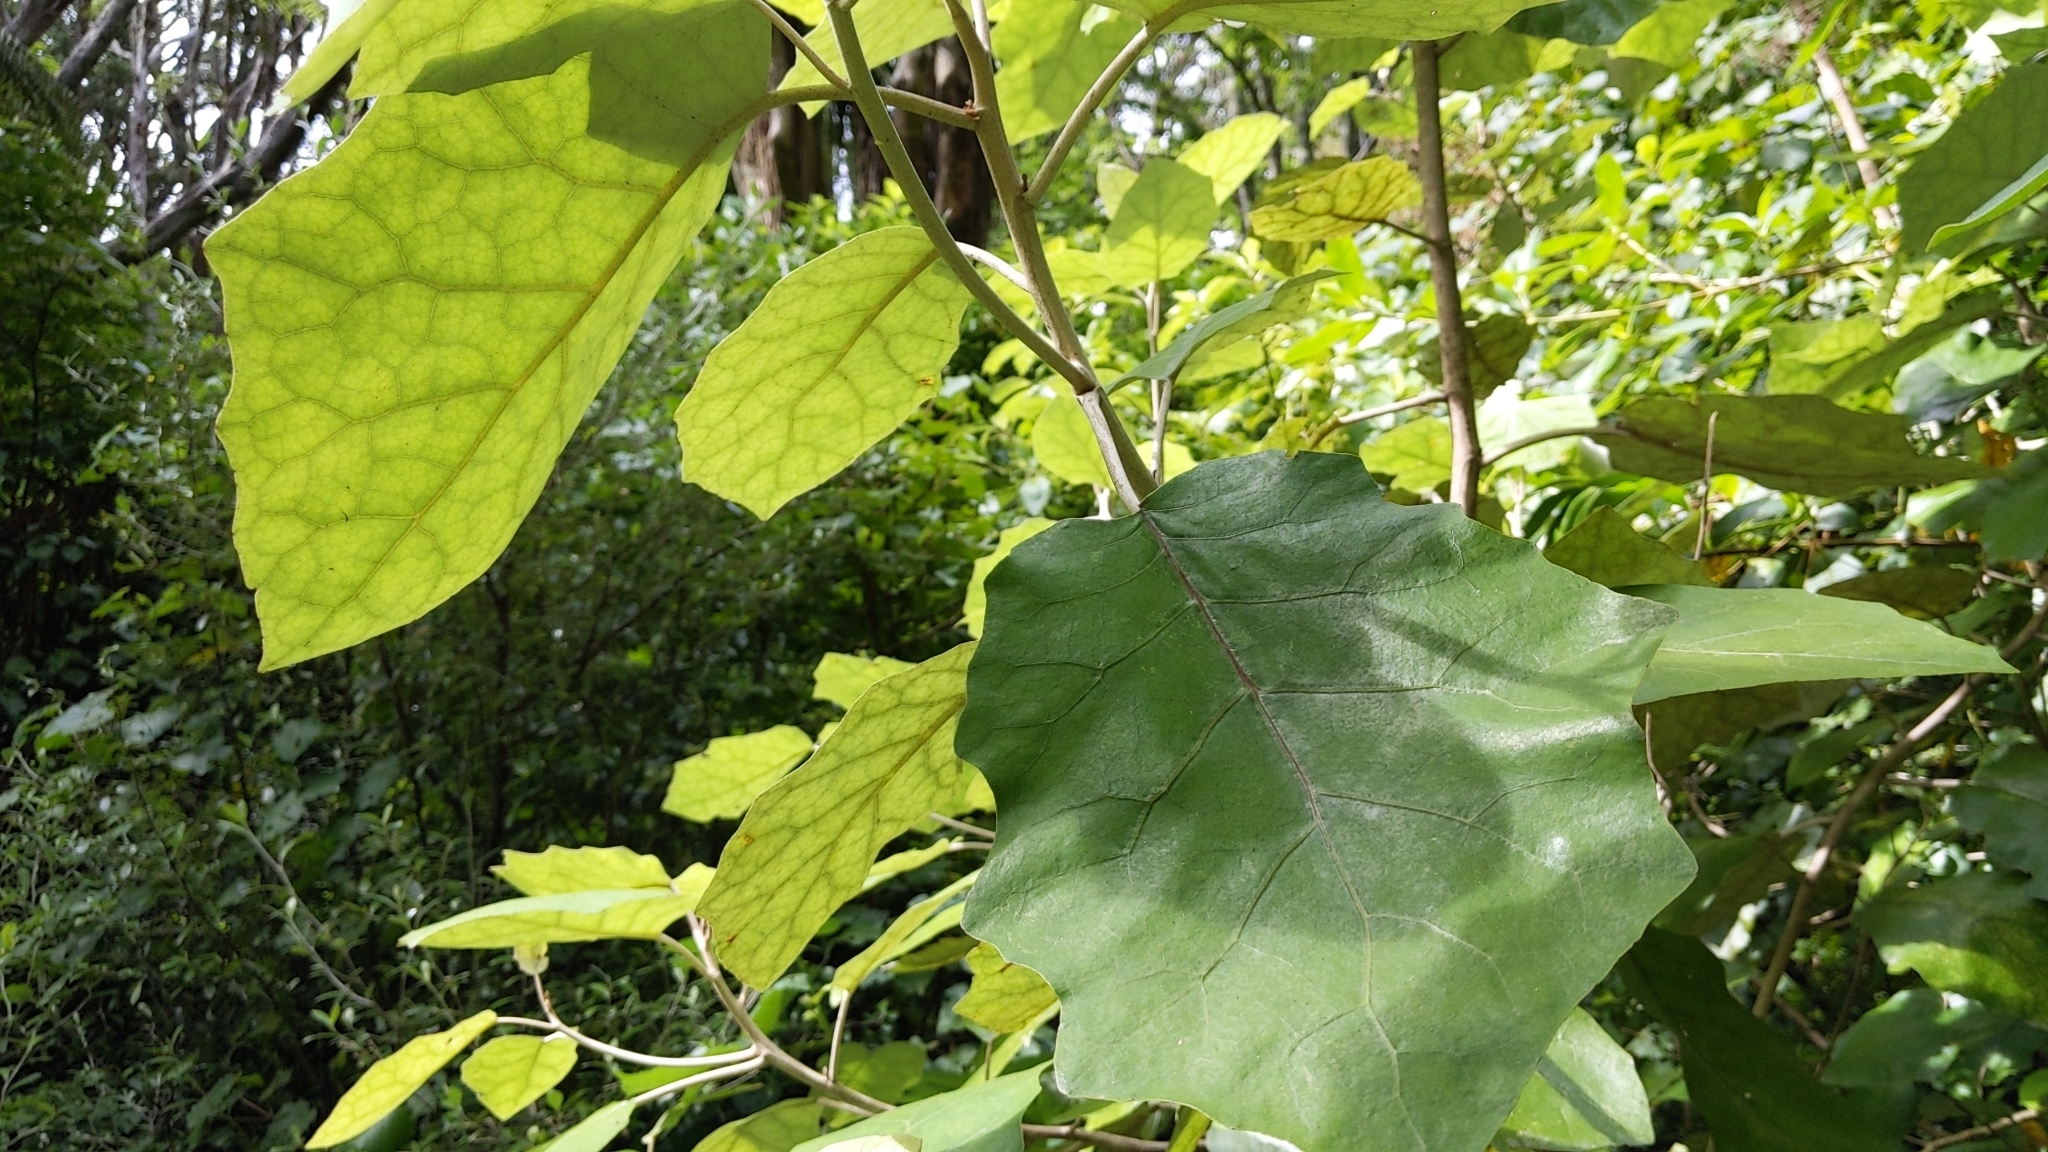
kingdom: Plantae
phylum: Tracheophyta
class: Magnoliopsida
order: Asterales
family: Asteraceae
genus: Brachyglottis
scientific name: Brachyglottis repanda
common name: Hedge ragwort
